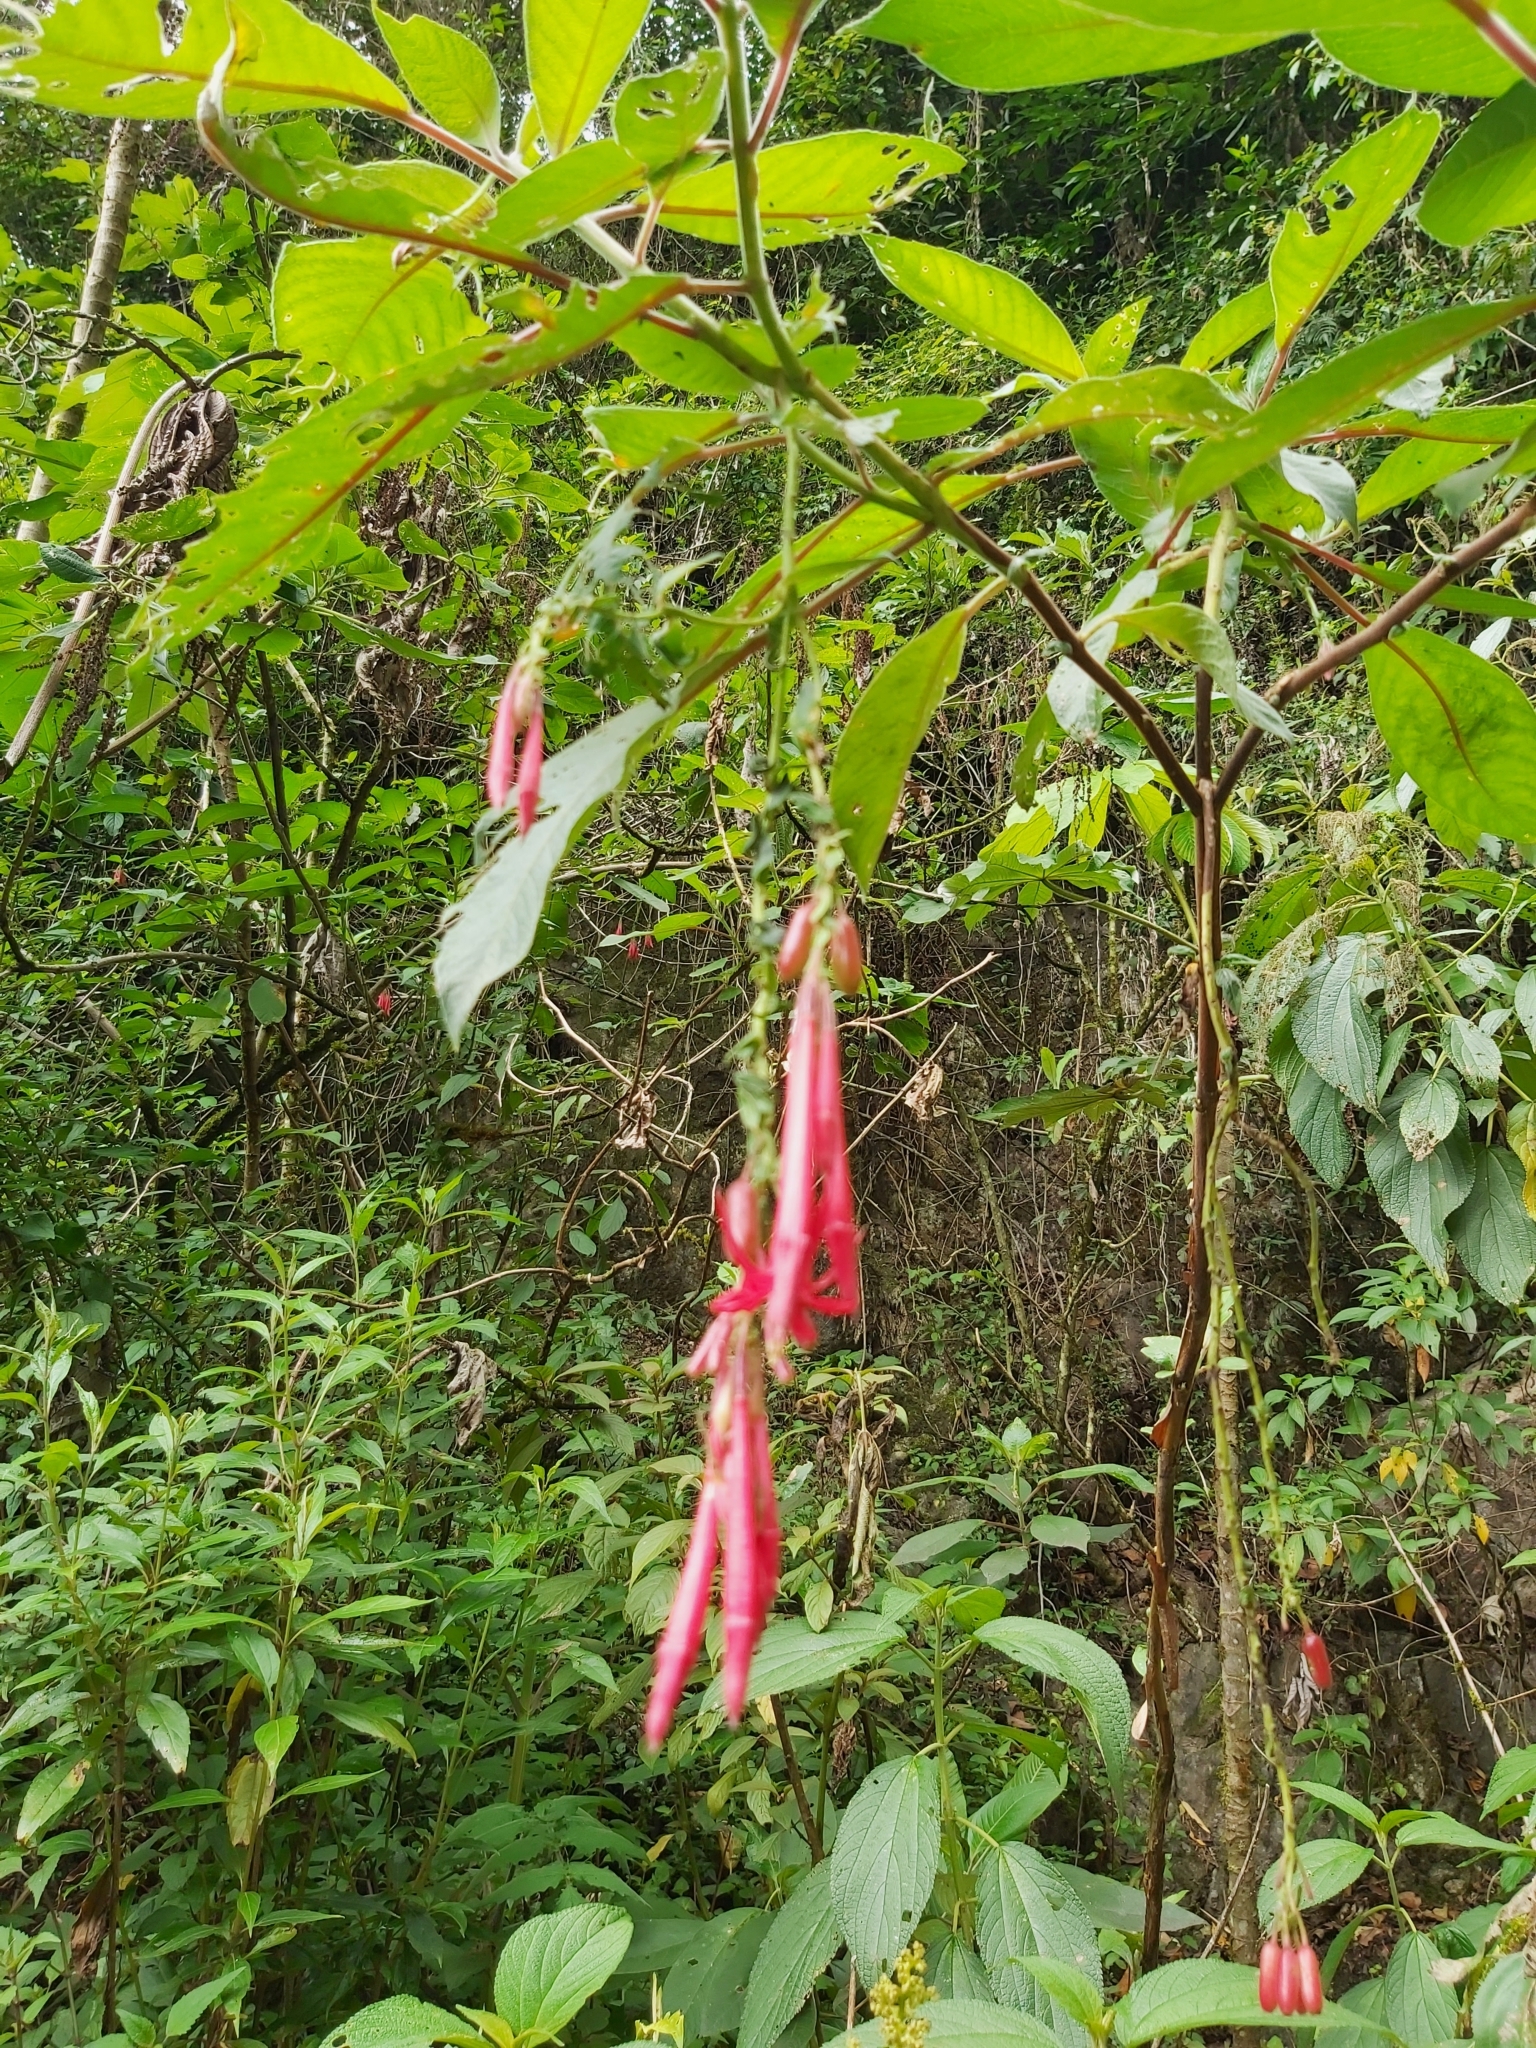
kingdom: Plantae
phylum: Tracheophyta
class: Magnoliopsida
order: Myrtales
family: Onagraceae
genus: Fuchsia
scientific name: Fuchsia boliviana
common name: Bolivian fuchsia
